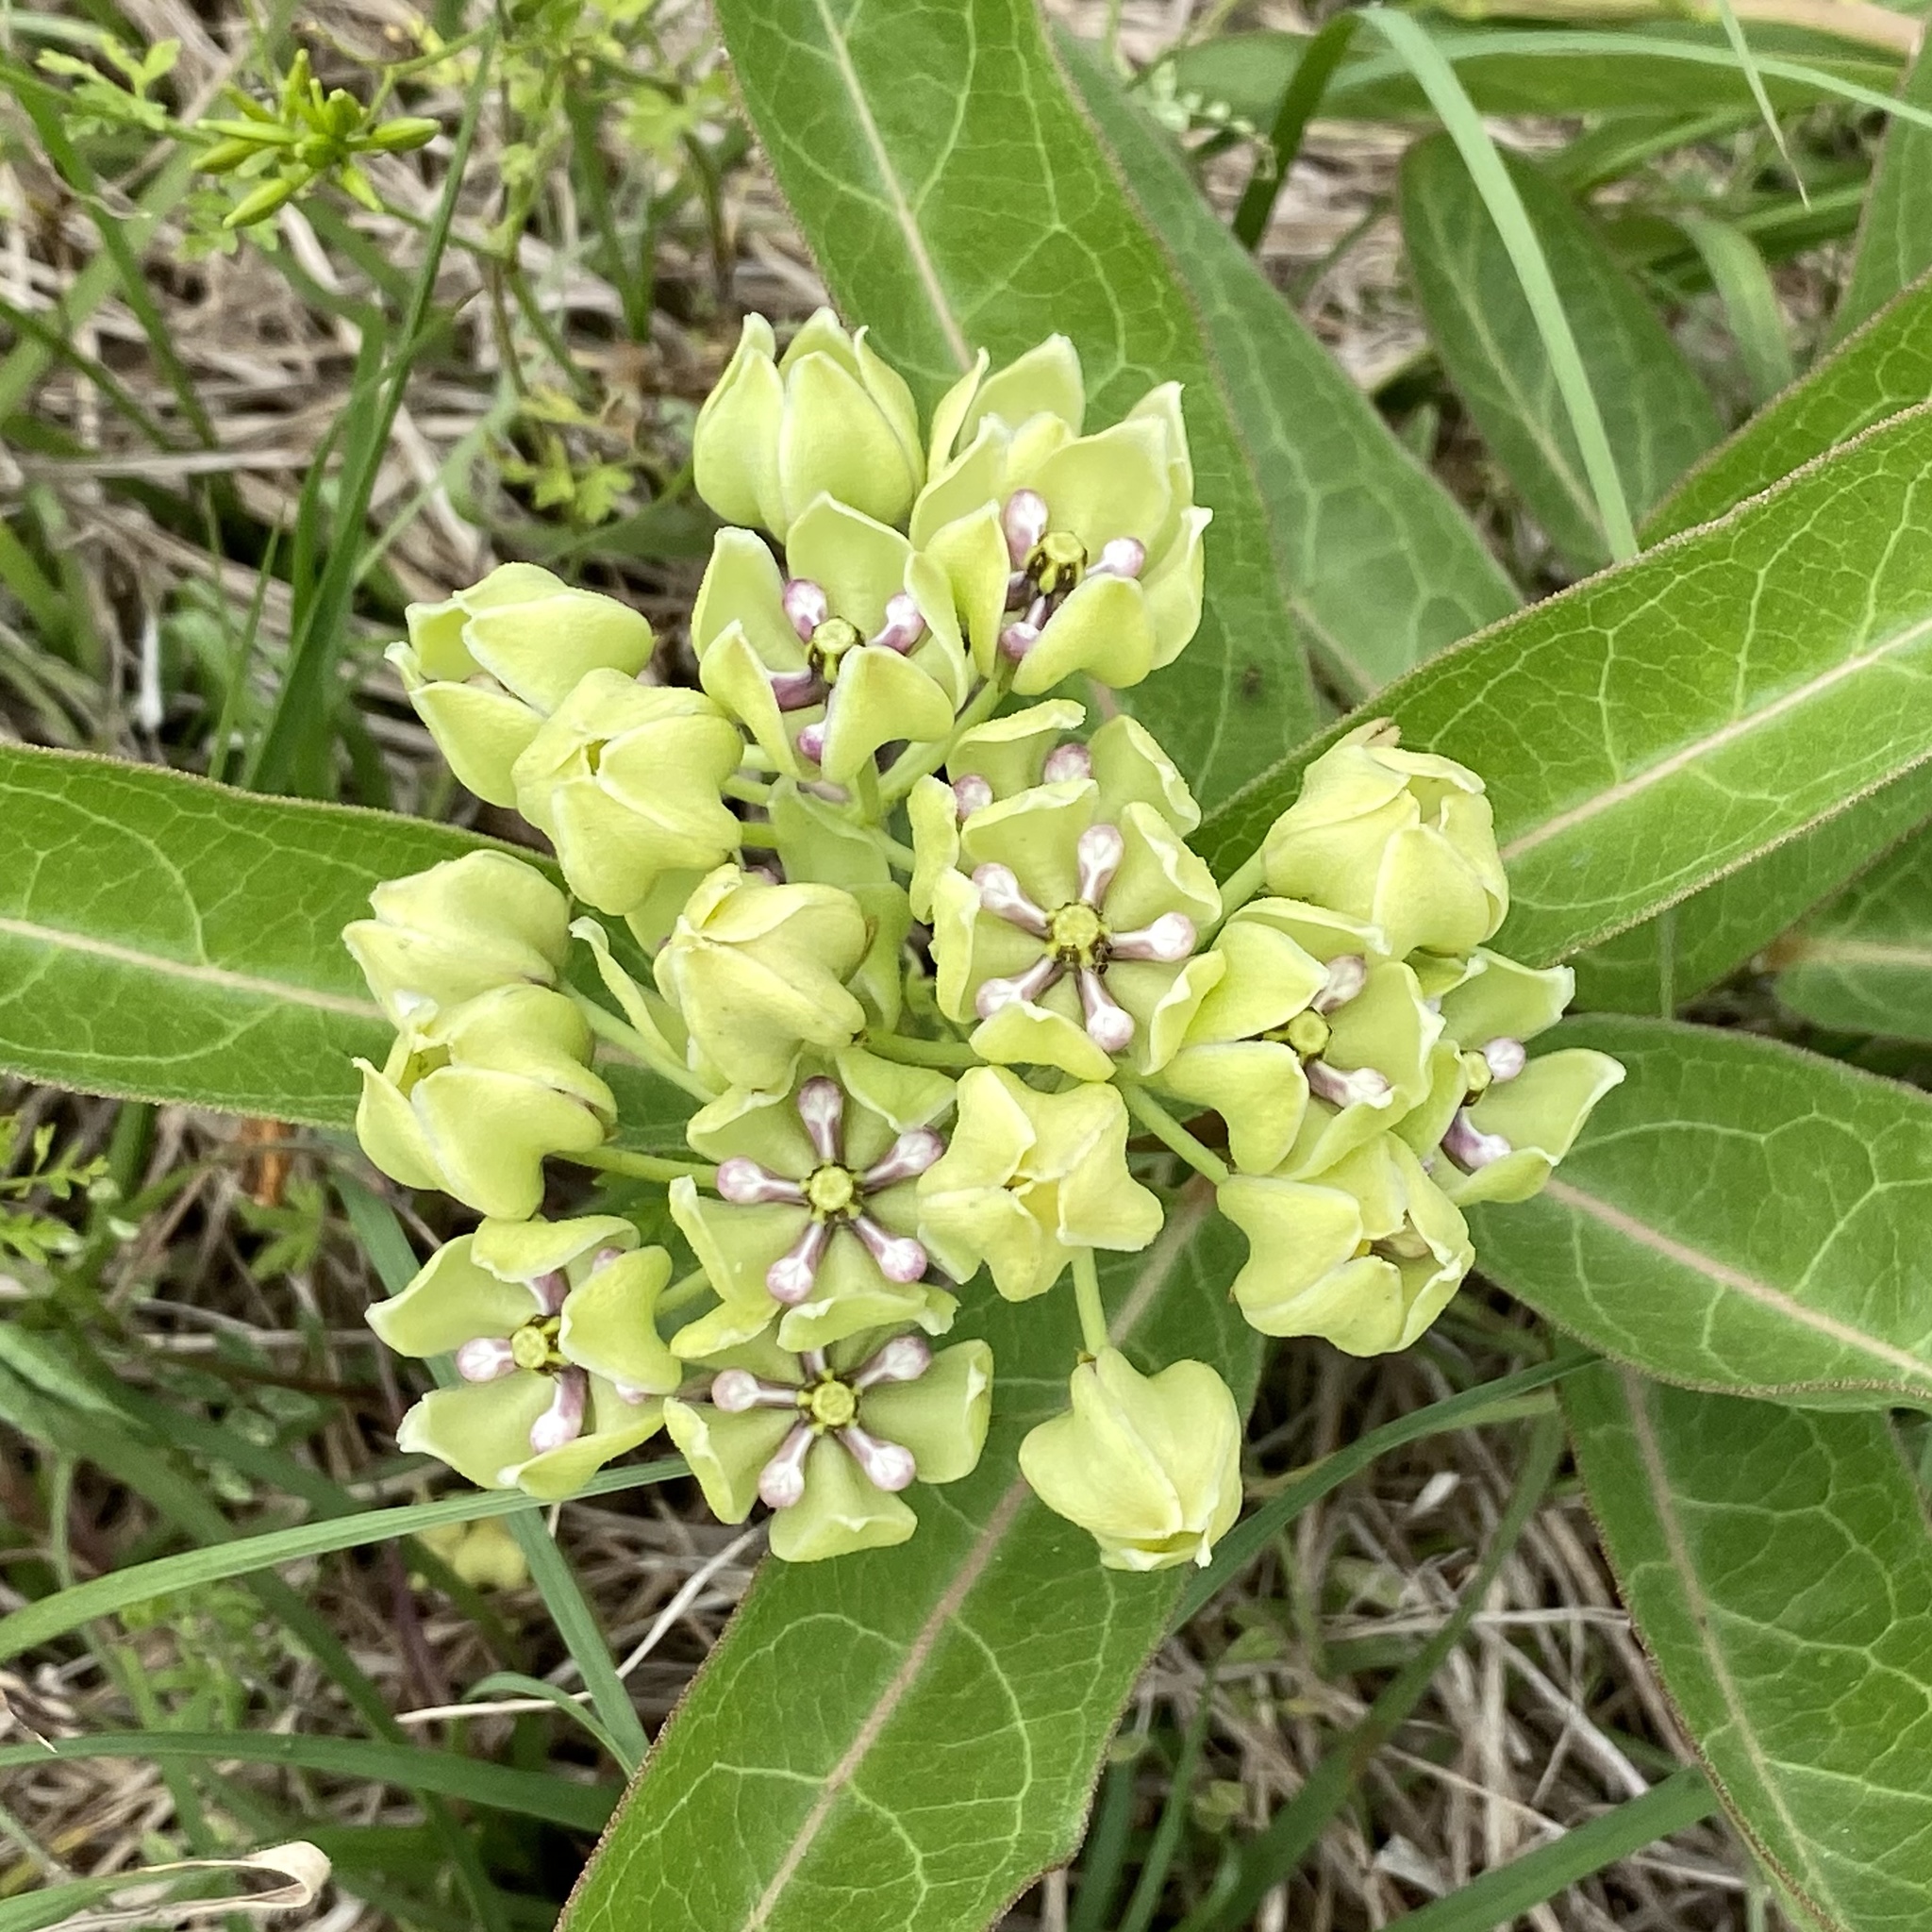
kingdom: Plantae
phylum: Tracheophyta
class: Magnoliopsida
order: Gentianales
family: Apocynaceae
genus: Asclepias
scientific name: Asclepias viridis
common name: Antelope-horns
